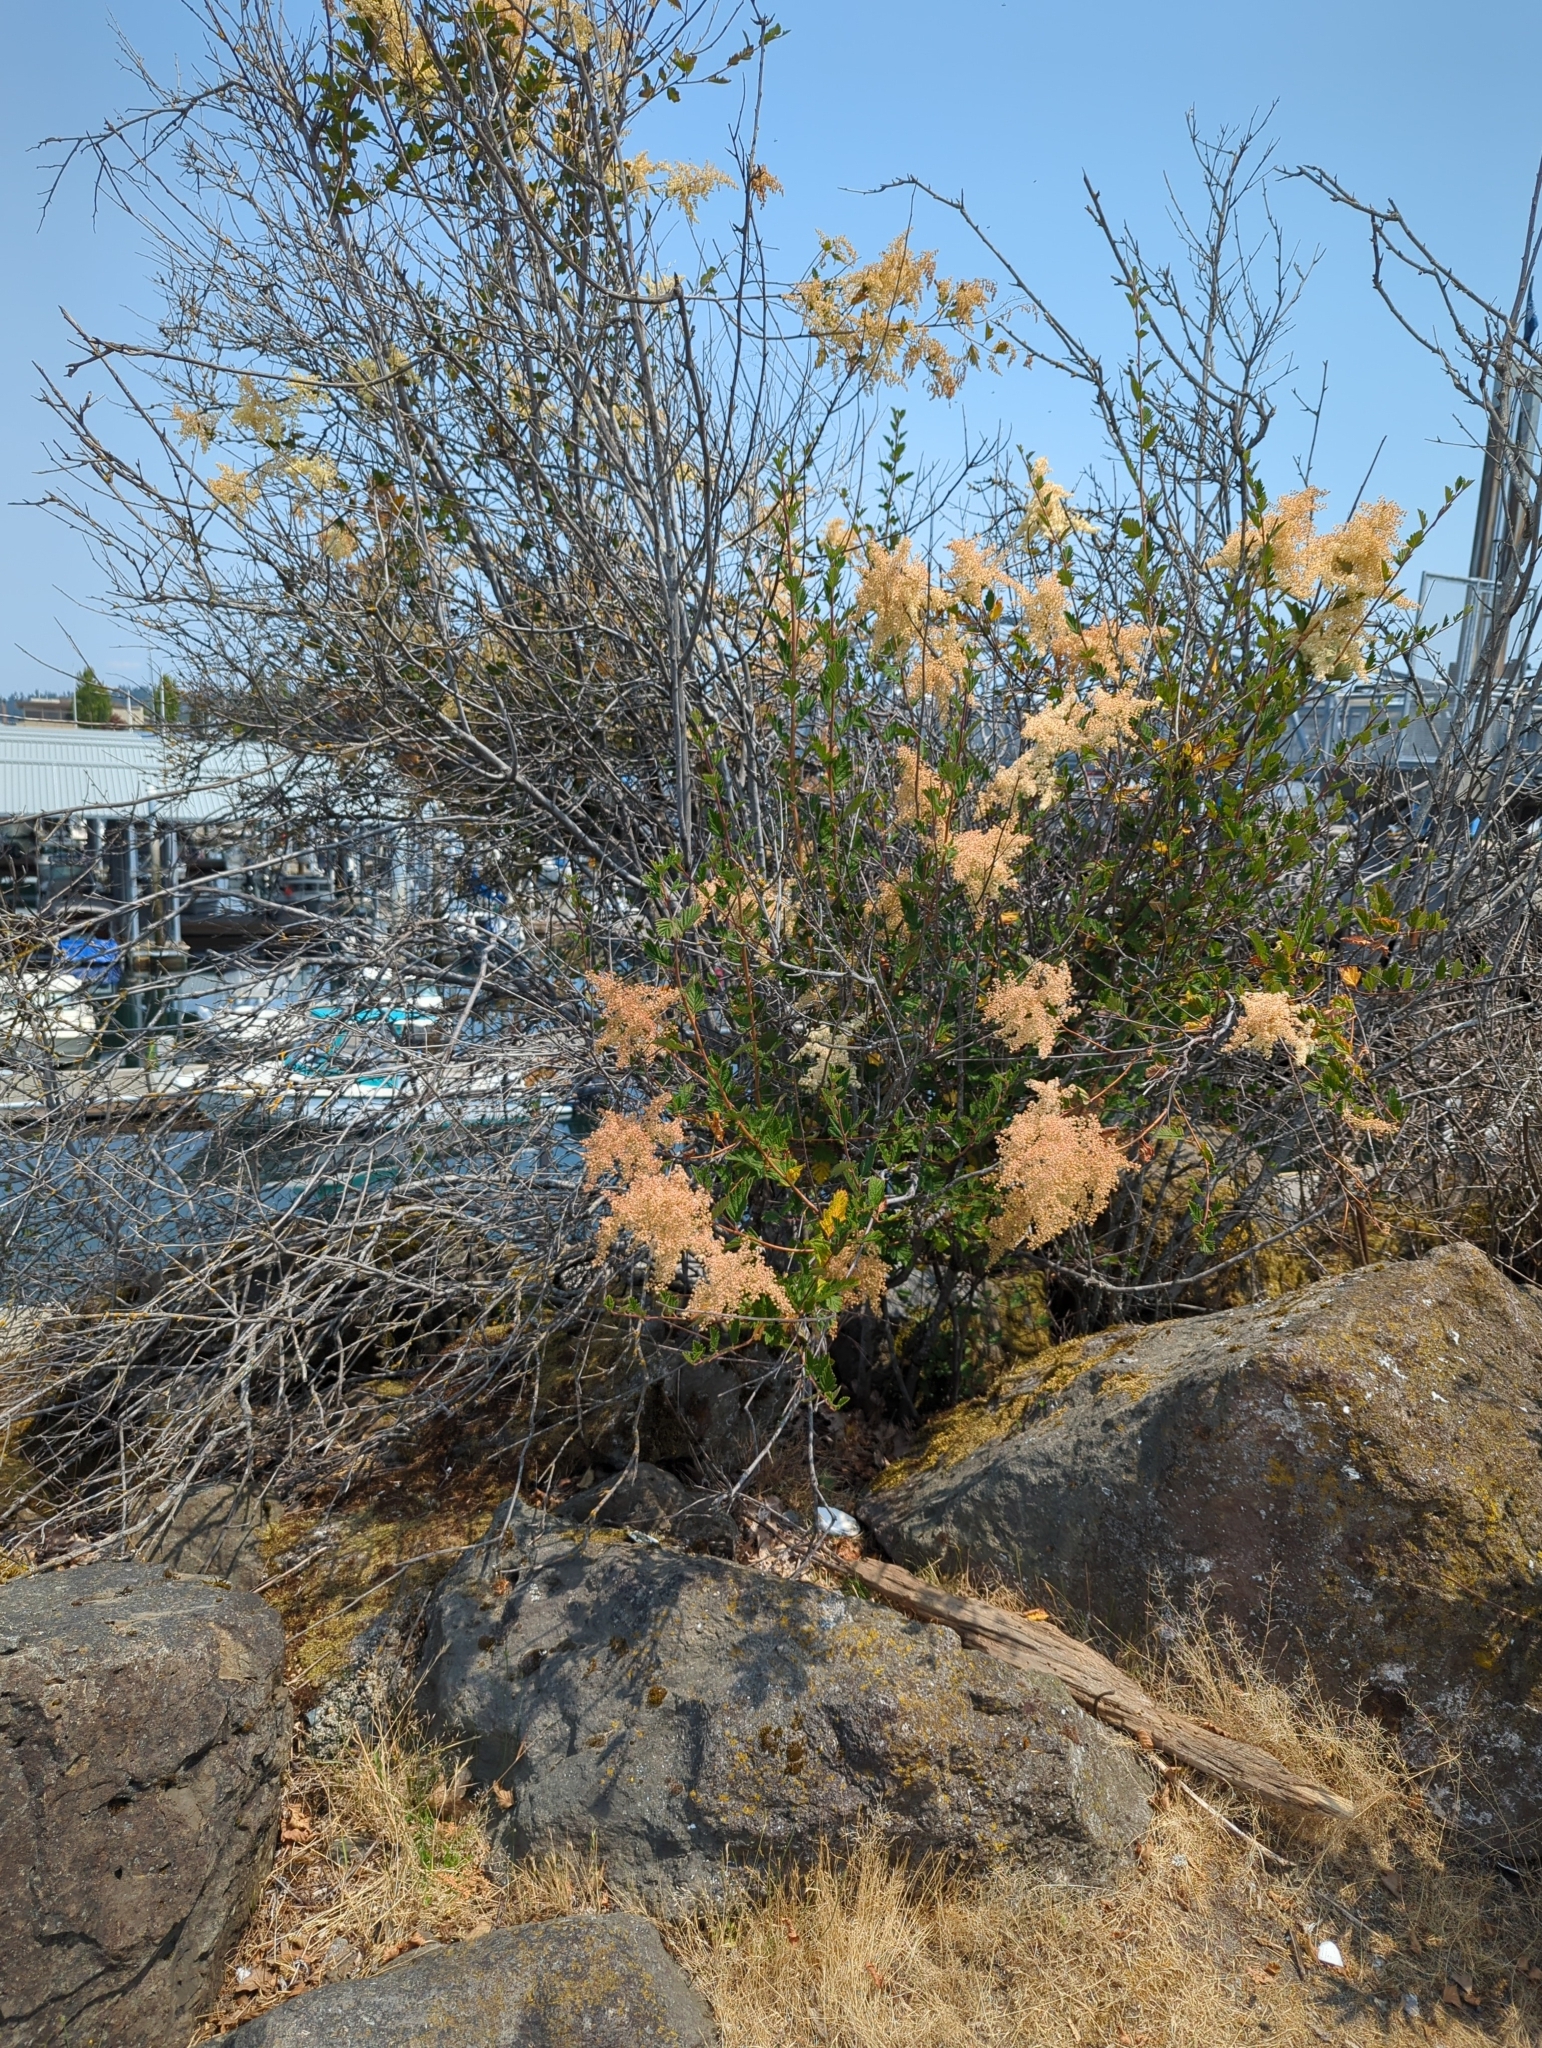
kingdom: Plantae
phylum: Tracheophyta
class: Magnoliopsida
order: Rosales
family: Rosaceae
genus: Holodiscus
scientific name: Holodiscus discolor
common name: Oceanspray
